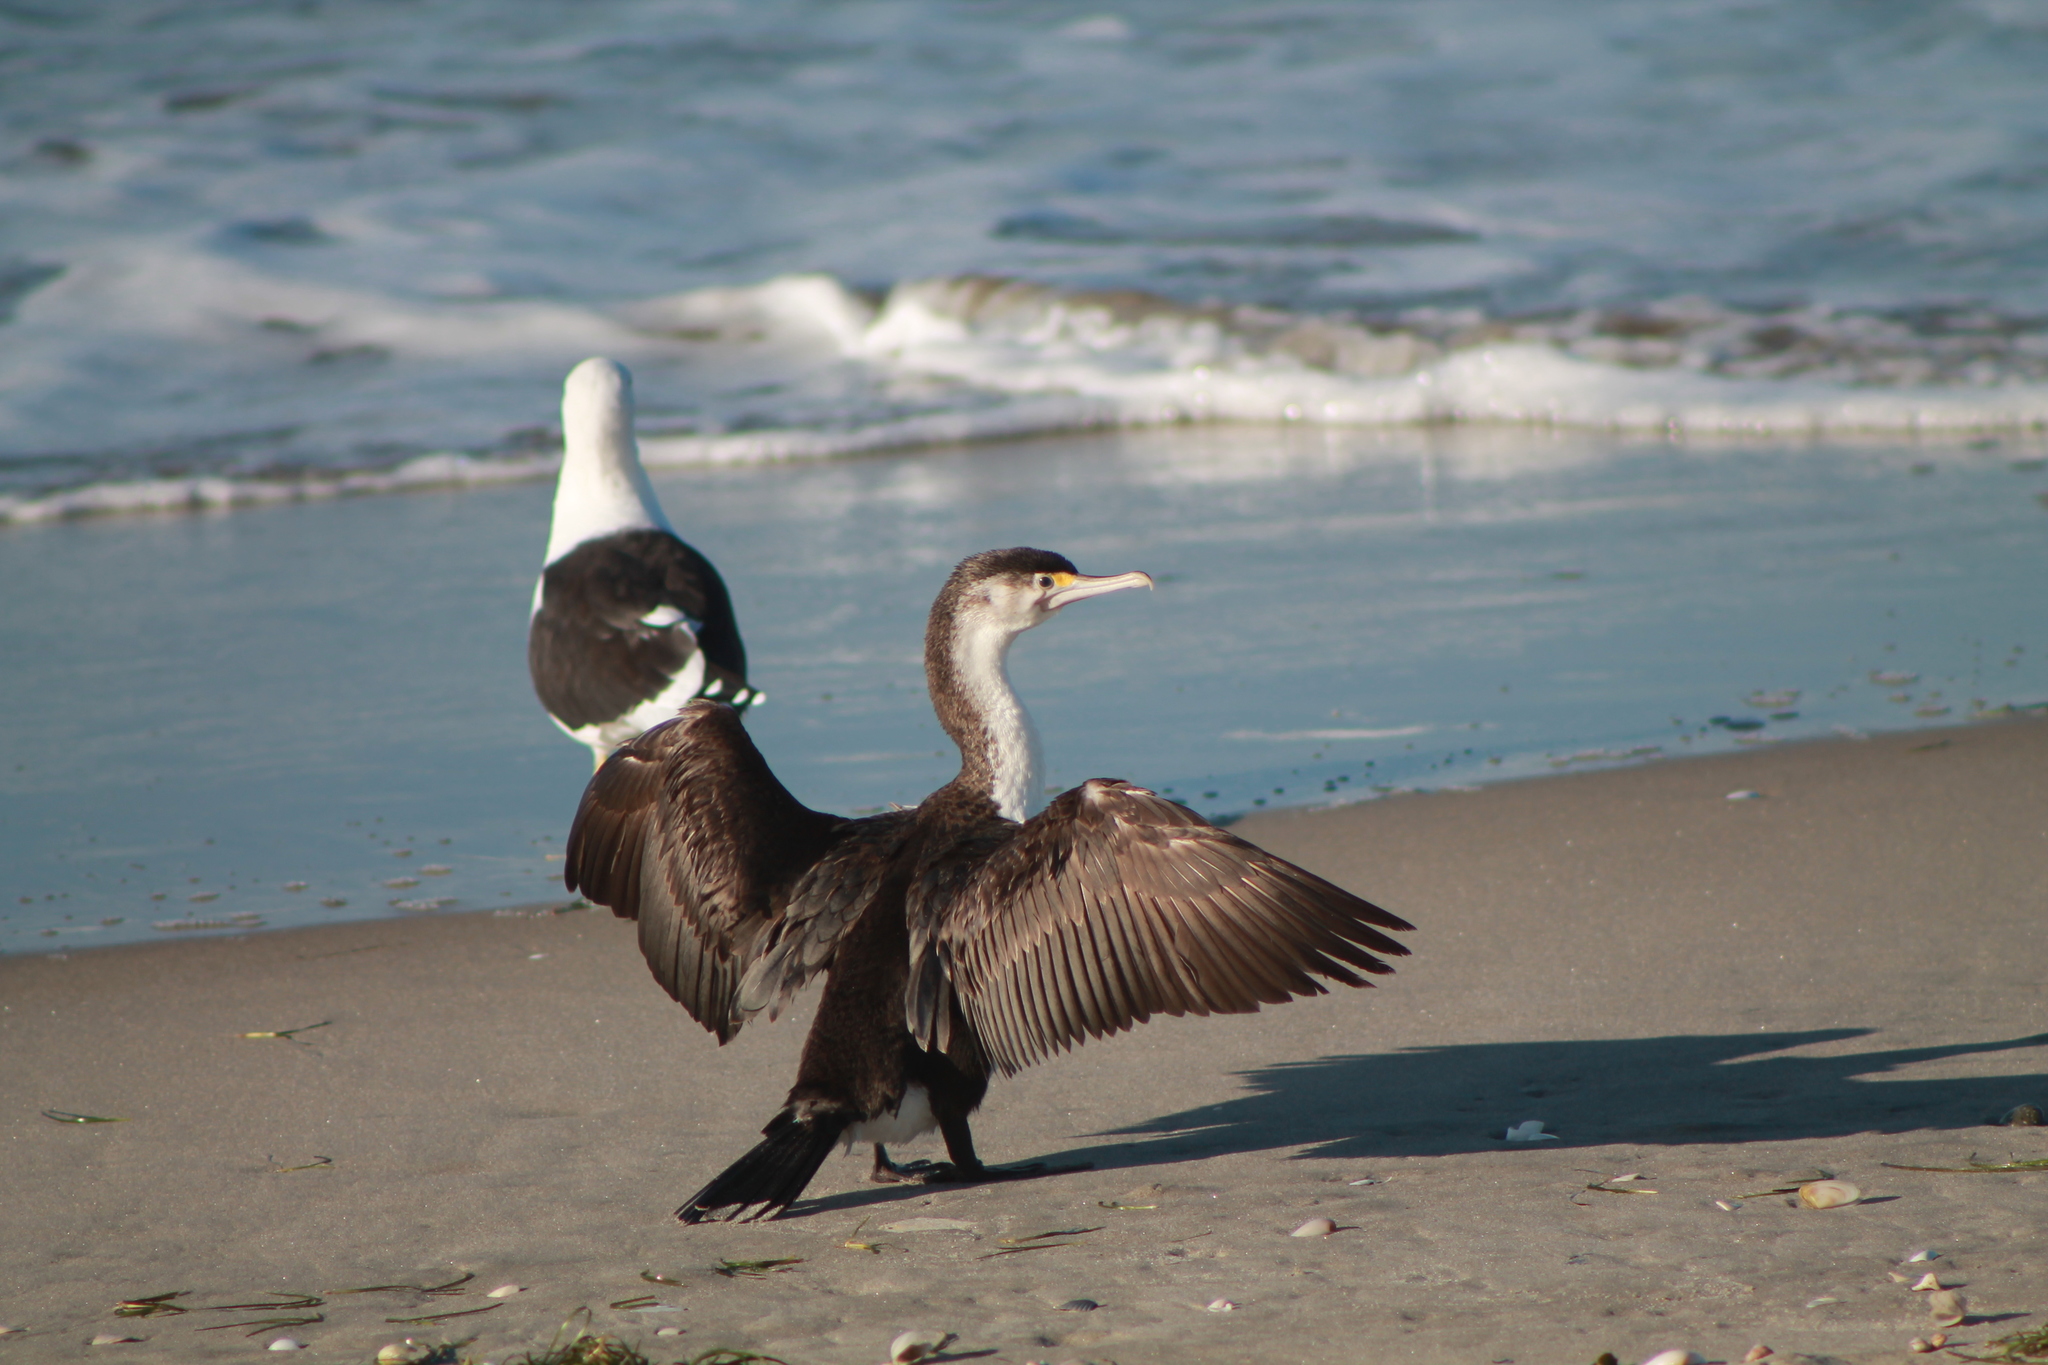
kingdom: Animalia
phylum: Chordata
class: Aves
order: Suliformes
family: Phalacrocoracidae
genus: Phalacrocorax
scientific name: Phalacrocorax varius
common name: Pied cormorant
